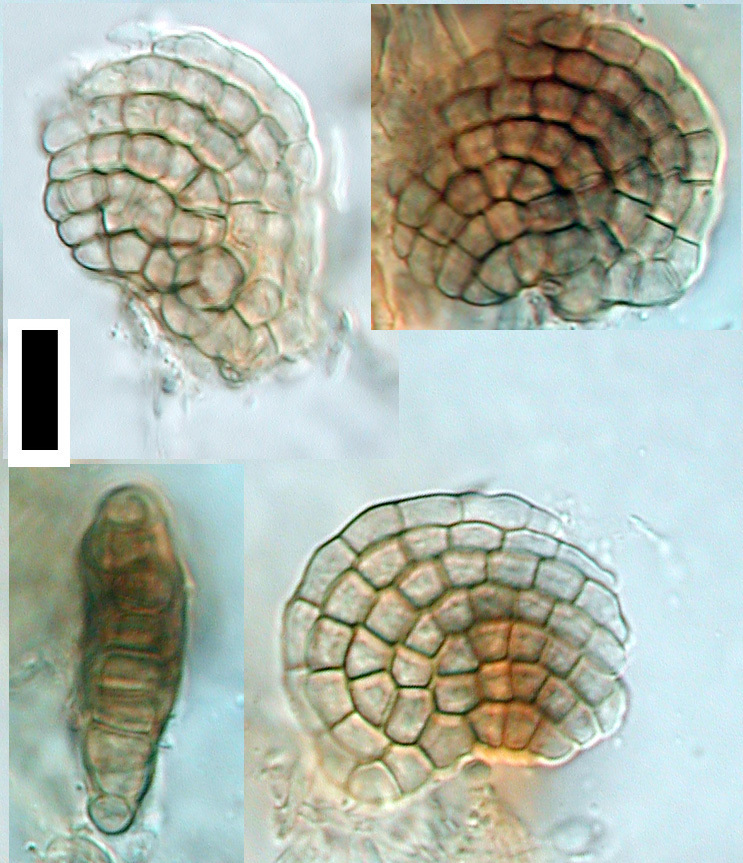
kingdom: Fungi
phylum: Ascomycota
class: Dothideomycetes
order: Pleosporales
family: Dictyosporiaceae
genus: Dictyosporium
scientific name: Dictyosporium foliicola
